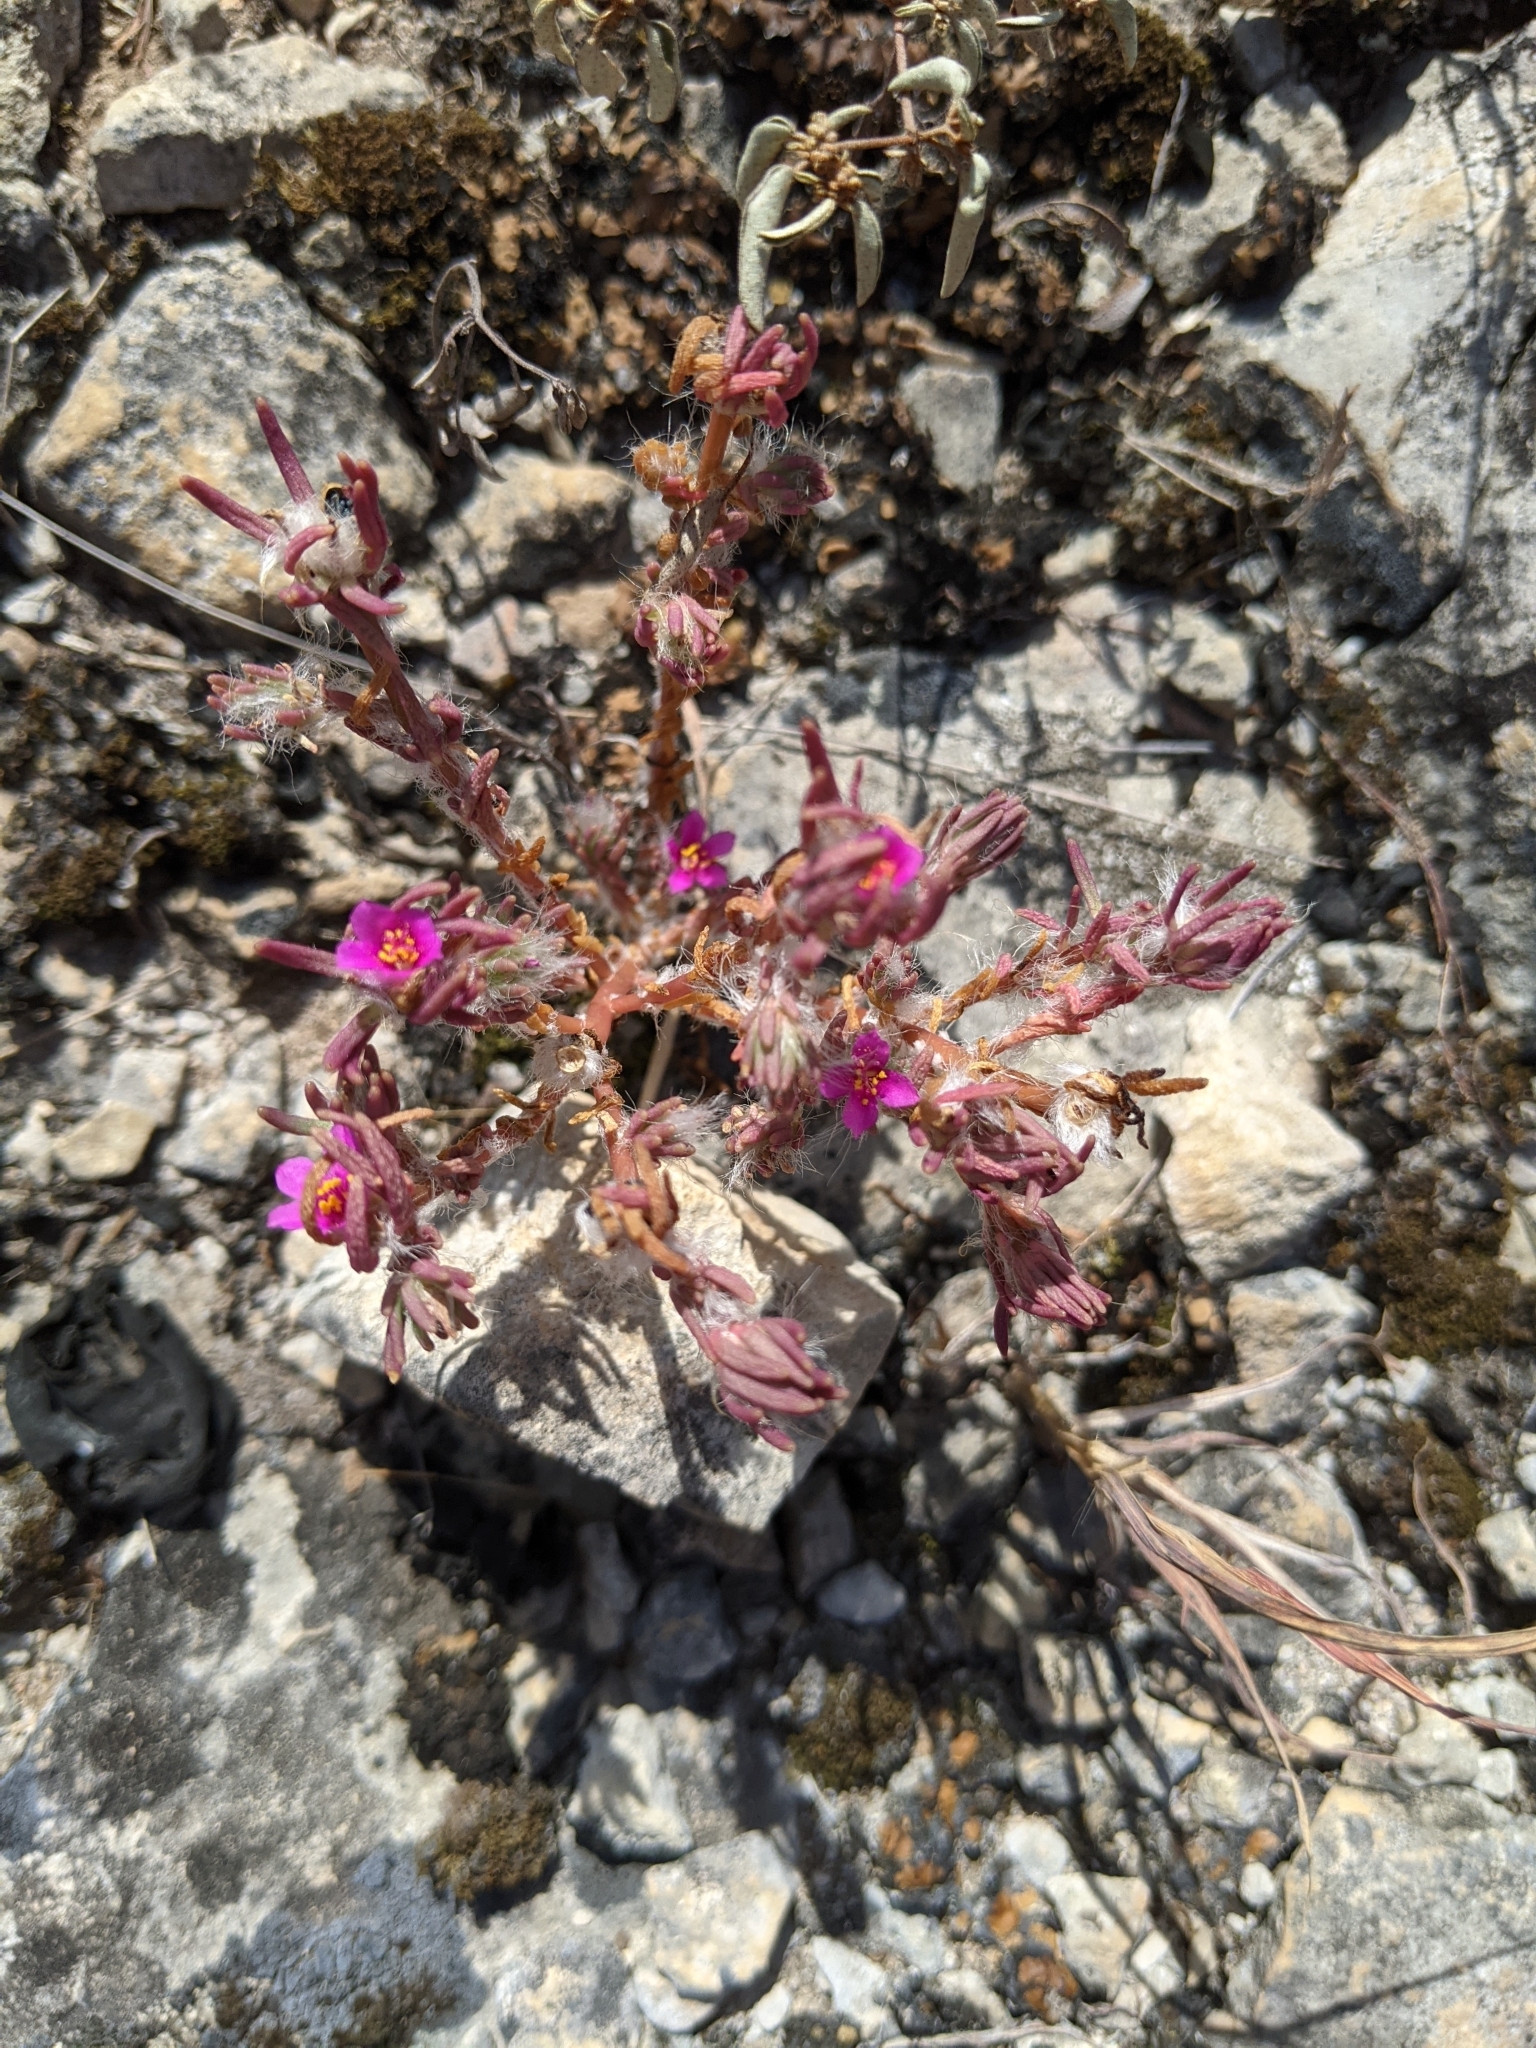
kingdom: Plantae
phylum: Tracheophyta
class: Magnoliopsida
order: Caryophyllales
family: Portulacaceae
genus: Portulaca
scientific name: Portulaca pilosa
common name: Kiss me quick
